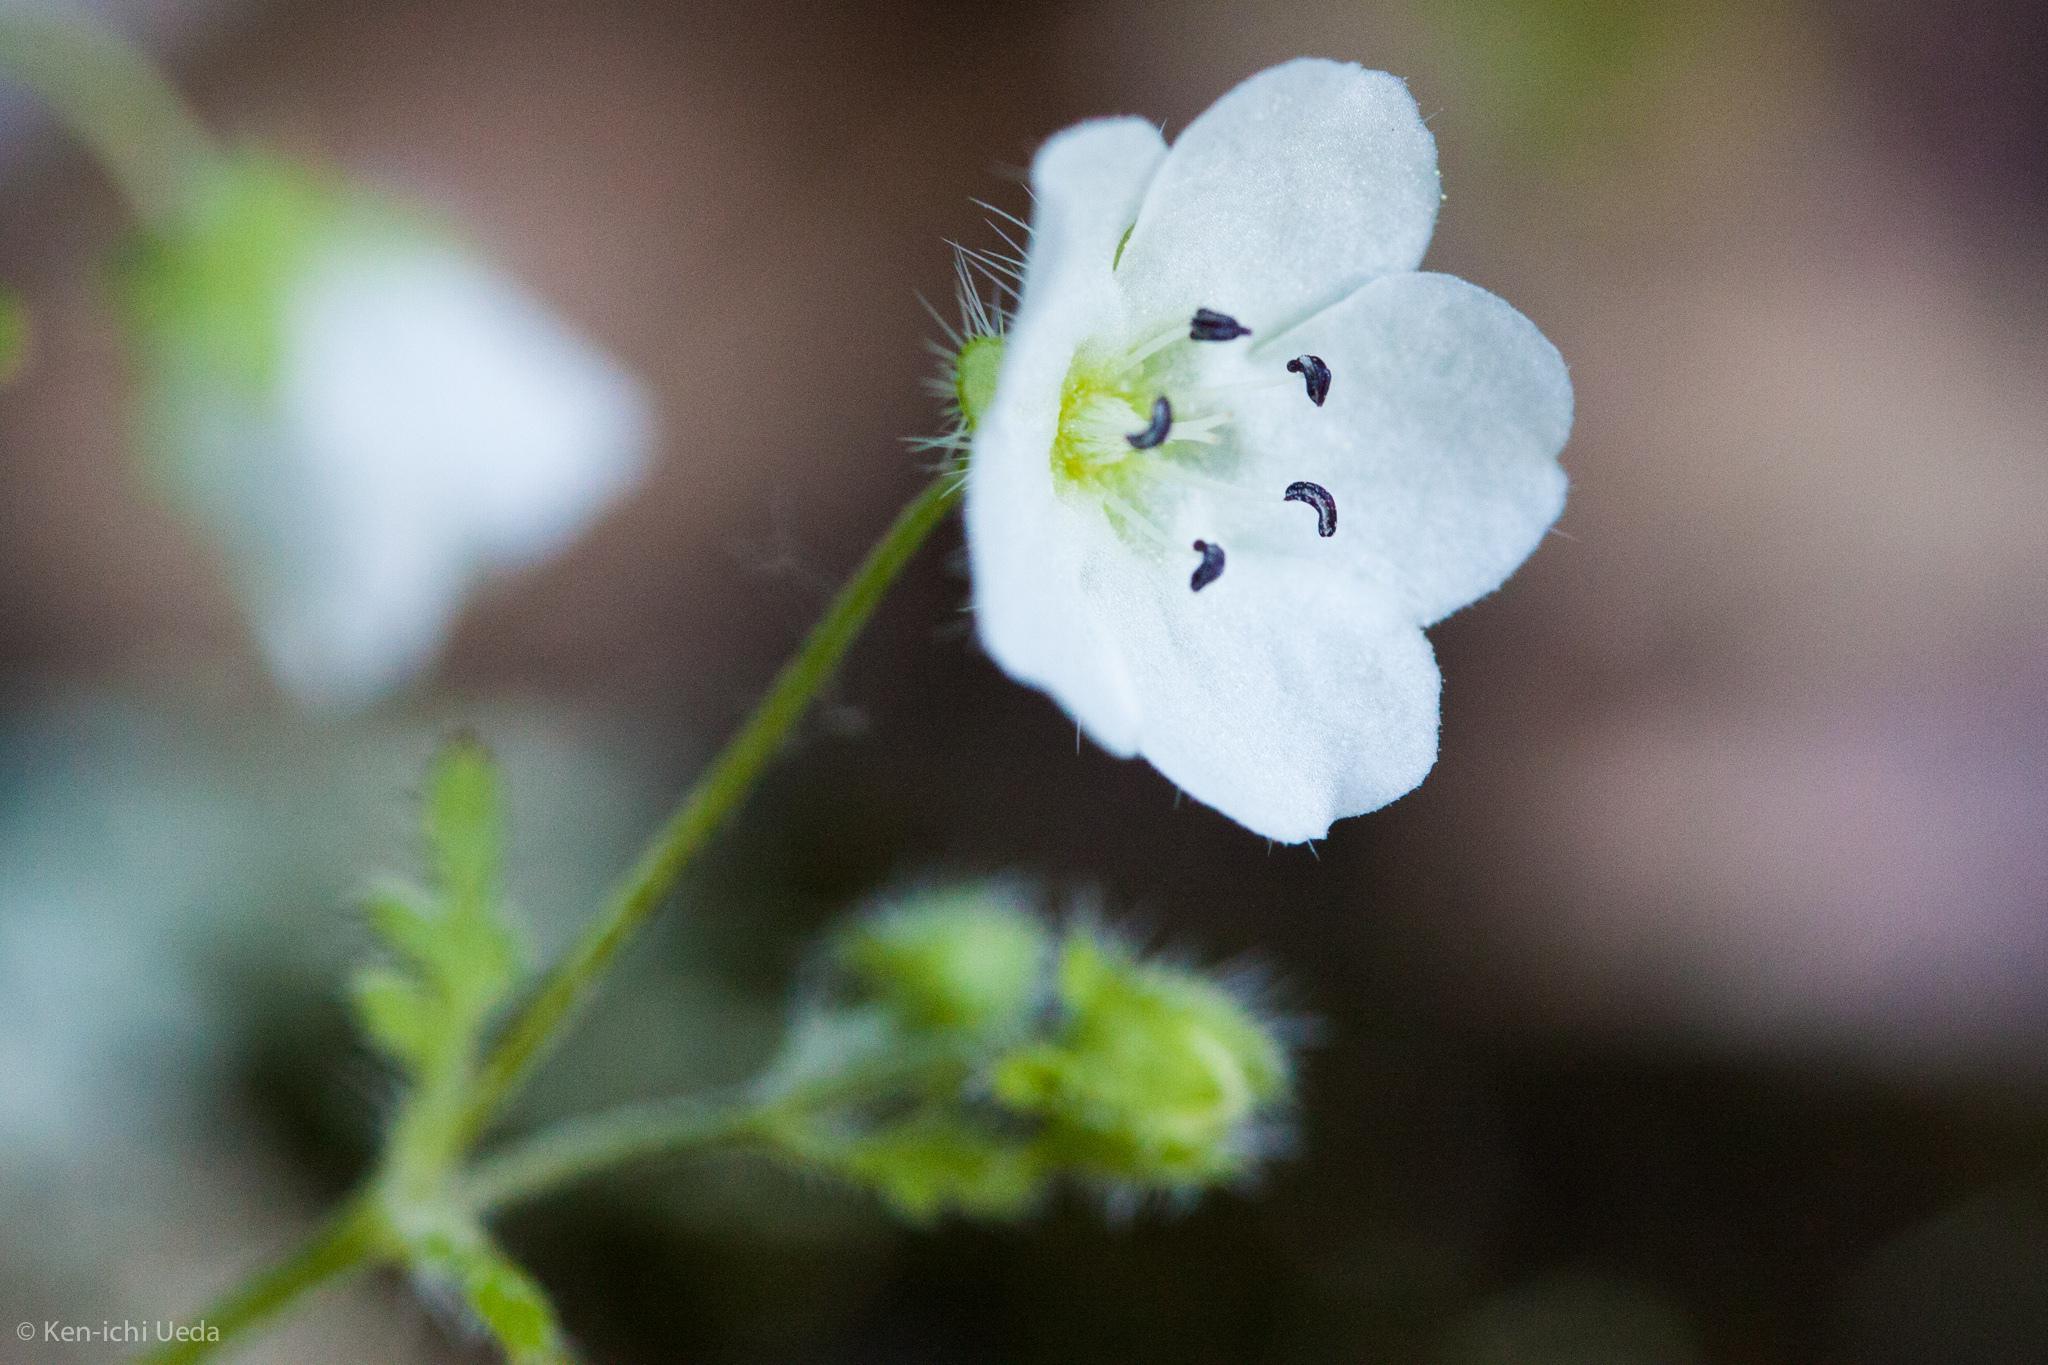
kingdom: Plantae
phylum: Tracheophyta
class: Magnoliopsida
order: Boraginales
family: Hydrophyllaceae
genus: Nemophila
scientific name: Nemophila heterophylla
